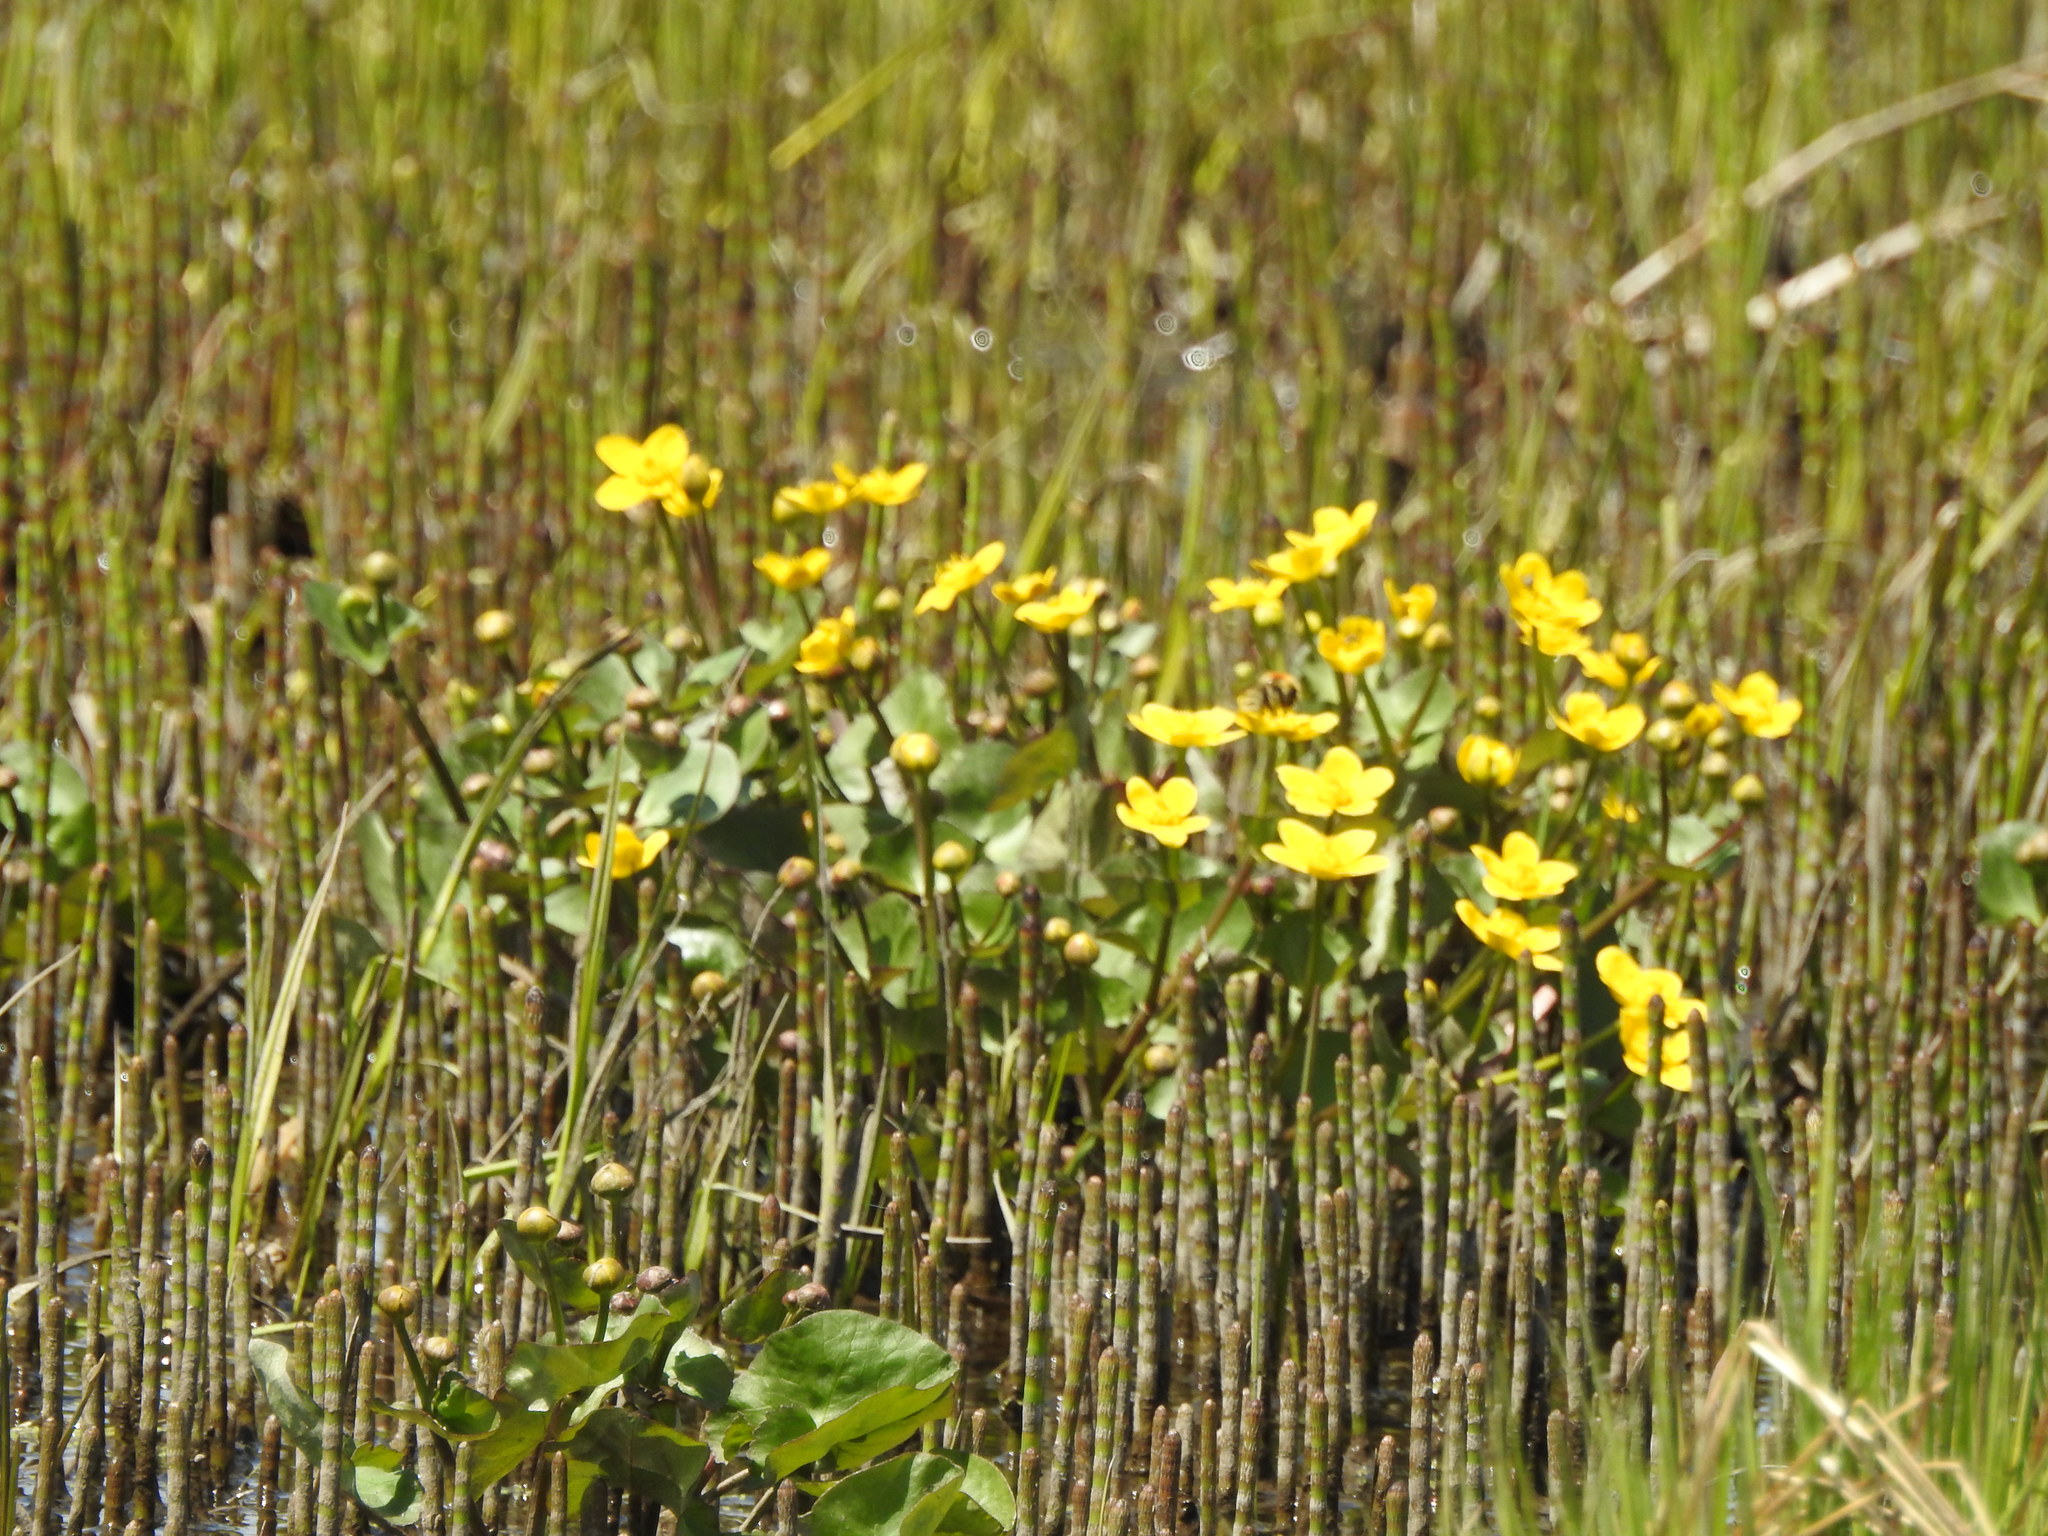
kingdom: Plantae
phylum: Tracheophyta
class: Magnoliopsida
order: Ranunculales
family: Ranunculaceae
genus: Caltha
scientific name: Caltha palustris
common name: Marsh marigold
